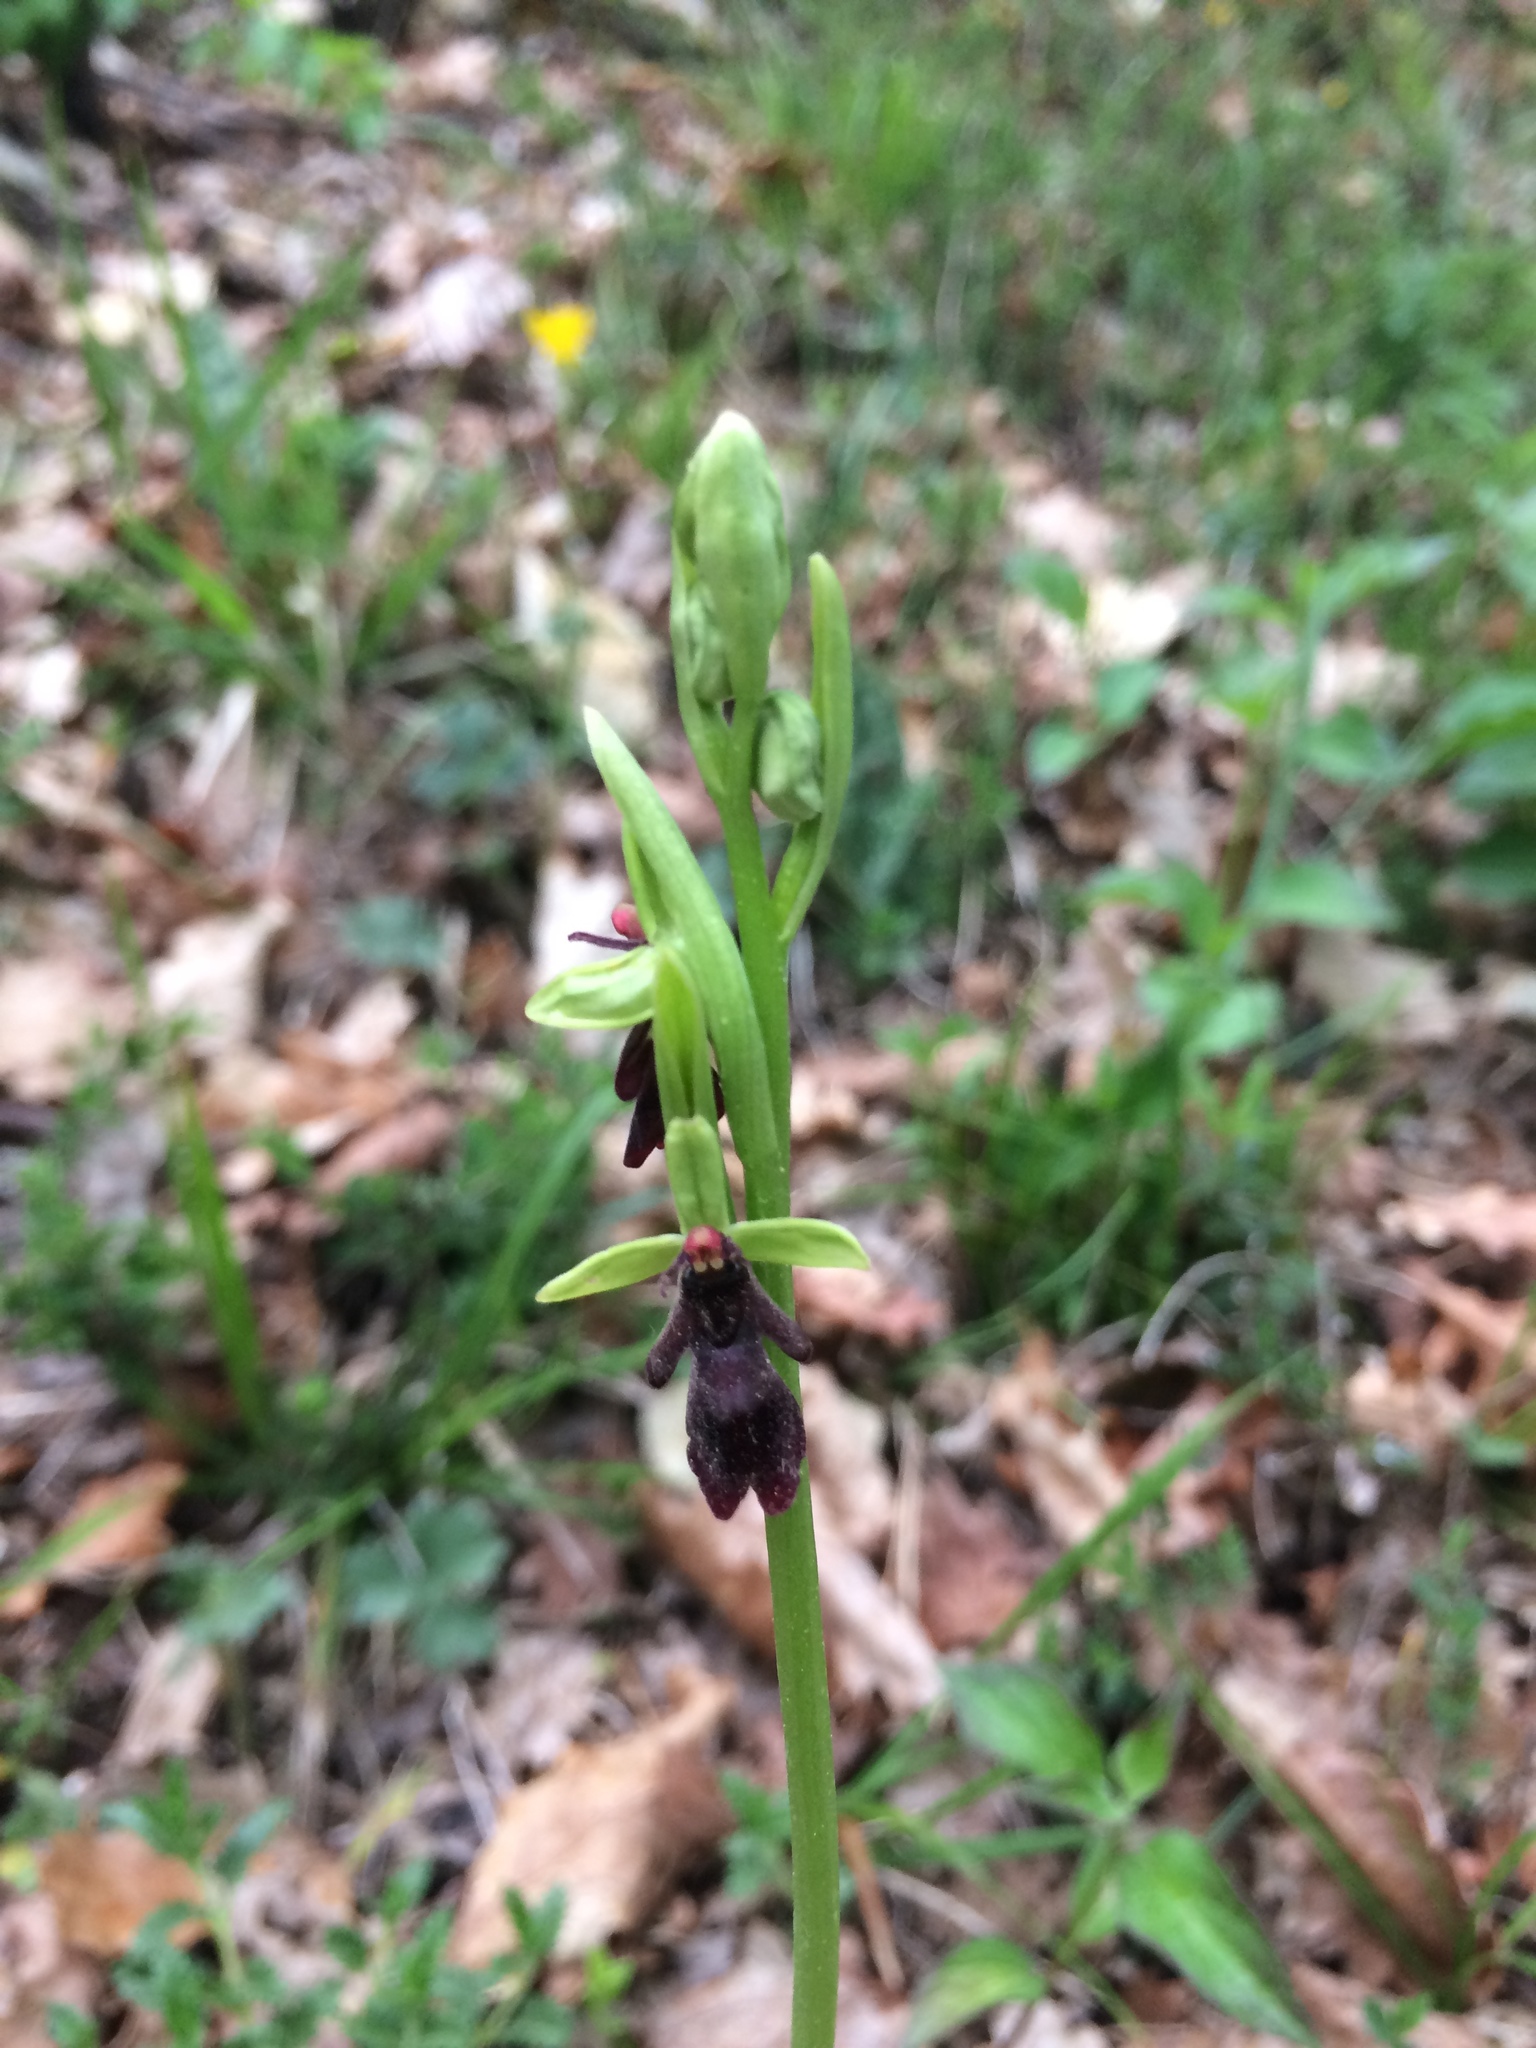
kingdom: Plantae
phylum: Tracheophyta
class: Liliopsida
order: Asparagales
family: Orchidaceae
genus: Ophrys
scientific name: Ophrys insectifera
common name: Fly orchid
